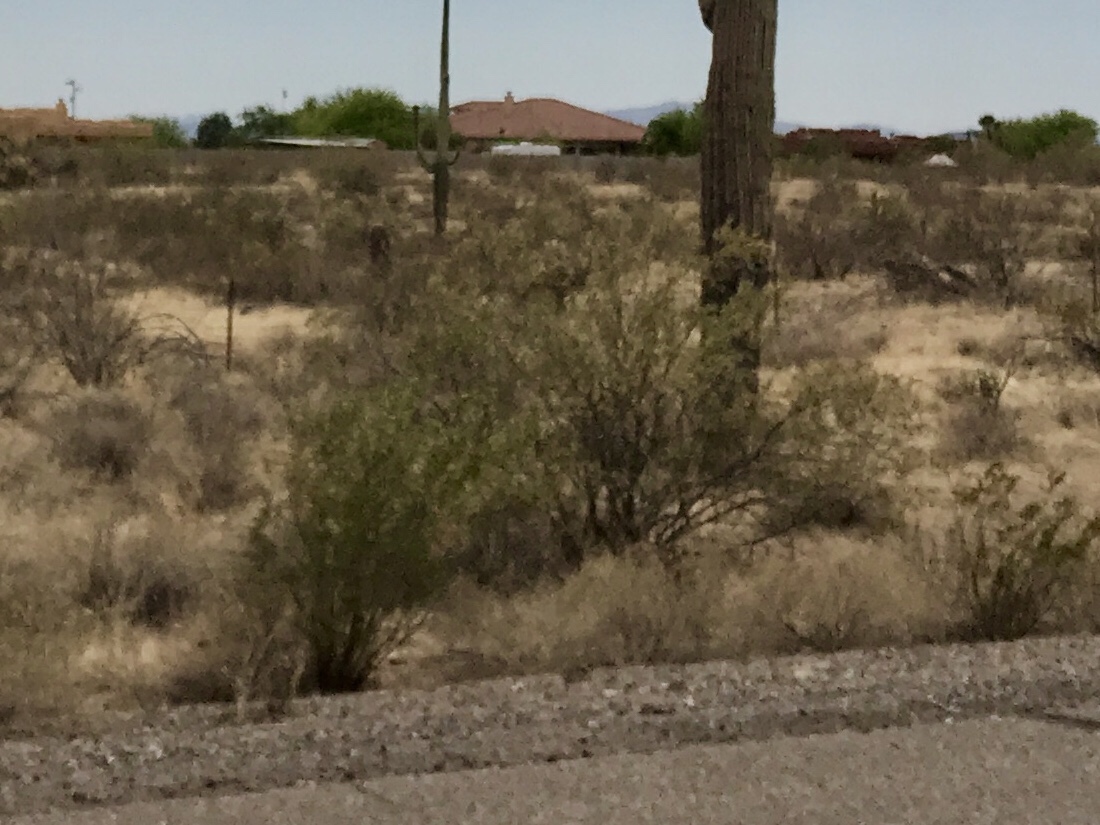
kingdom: Plantae
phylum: Tracheophyta
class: Magnoliopsida
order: Zygophyllales
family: Zygophyllaceae
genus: Larrea
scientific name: Larrea tridentata
